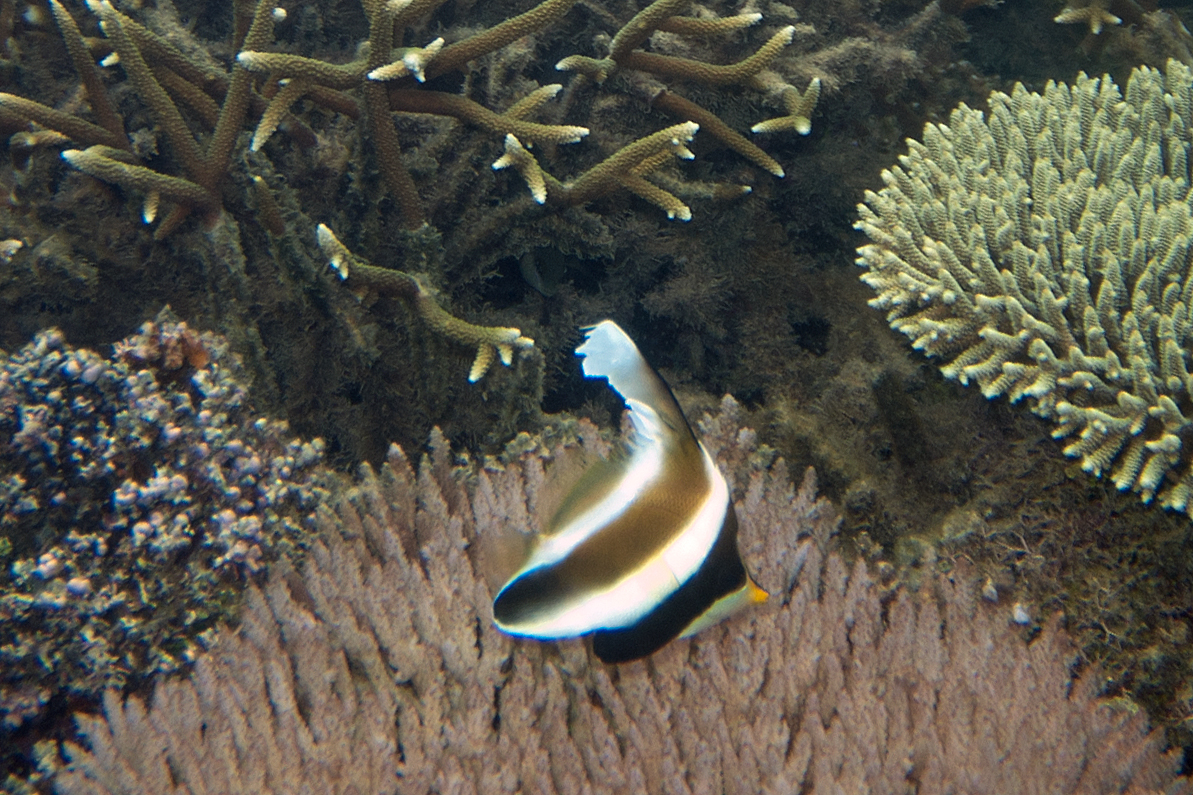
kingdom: Animalia
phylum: Chordata
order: Perciformes
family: Chaetodontidae
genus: Heniochus
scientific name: Heniochus chrysostomus
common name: Horned bannerfish
